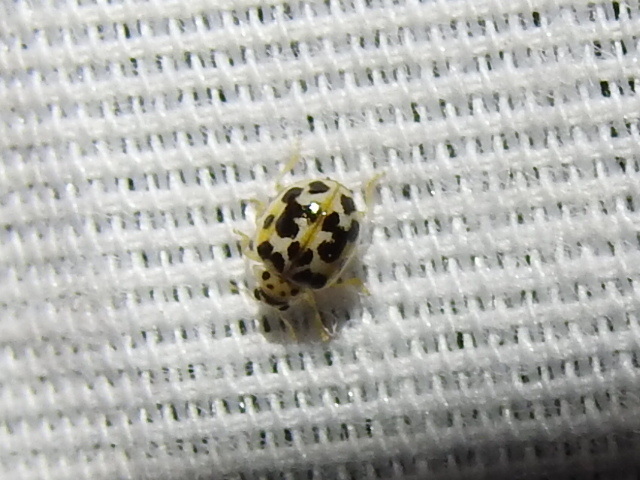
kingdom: Animalia
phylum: Arthropoda
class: Insecta
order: Coleoptera
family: Coccinellidae
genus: Psyllobora
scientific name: Psyllobora vigintimaculata
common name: Ladybird beetle
